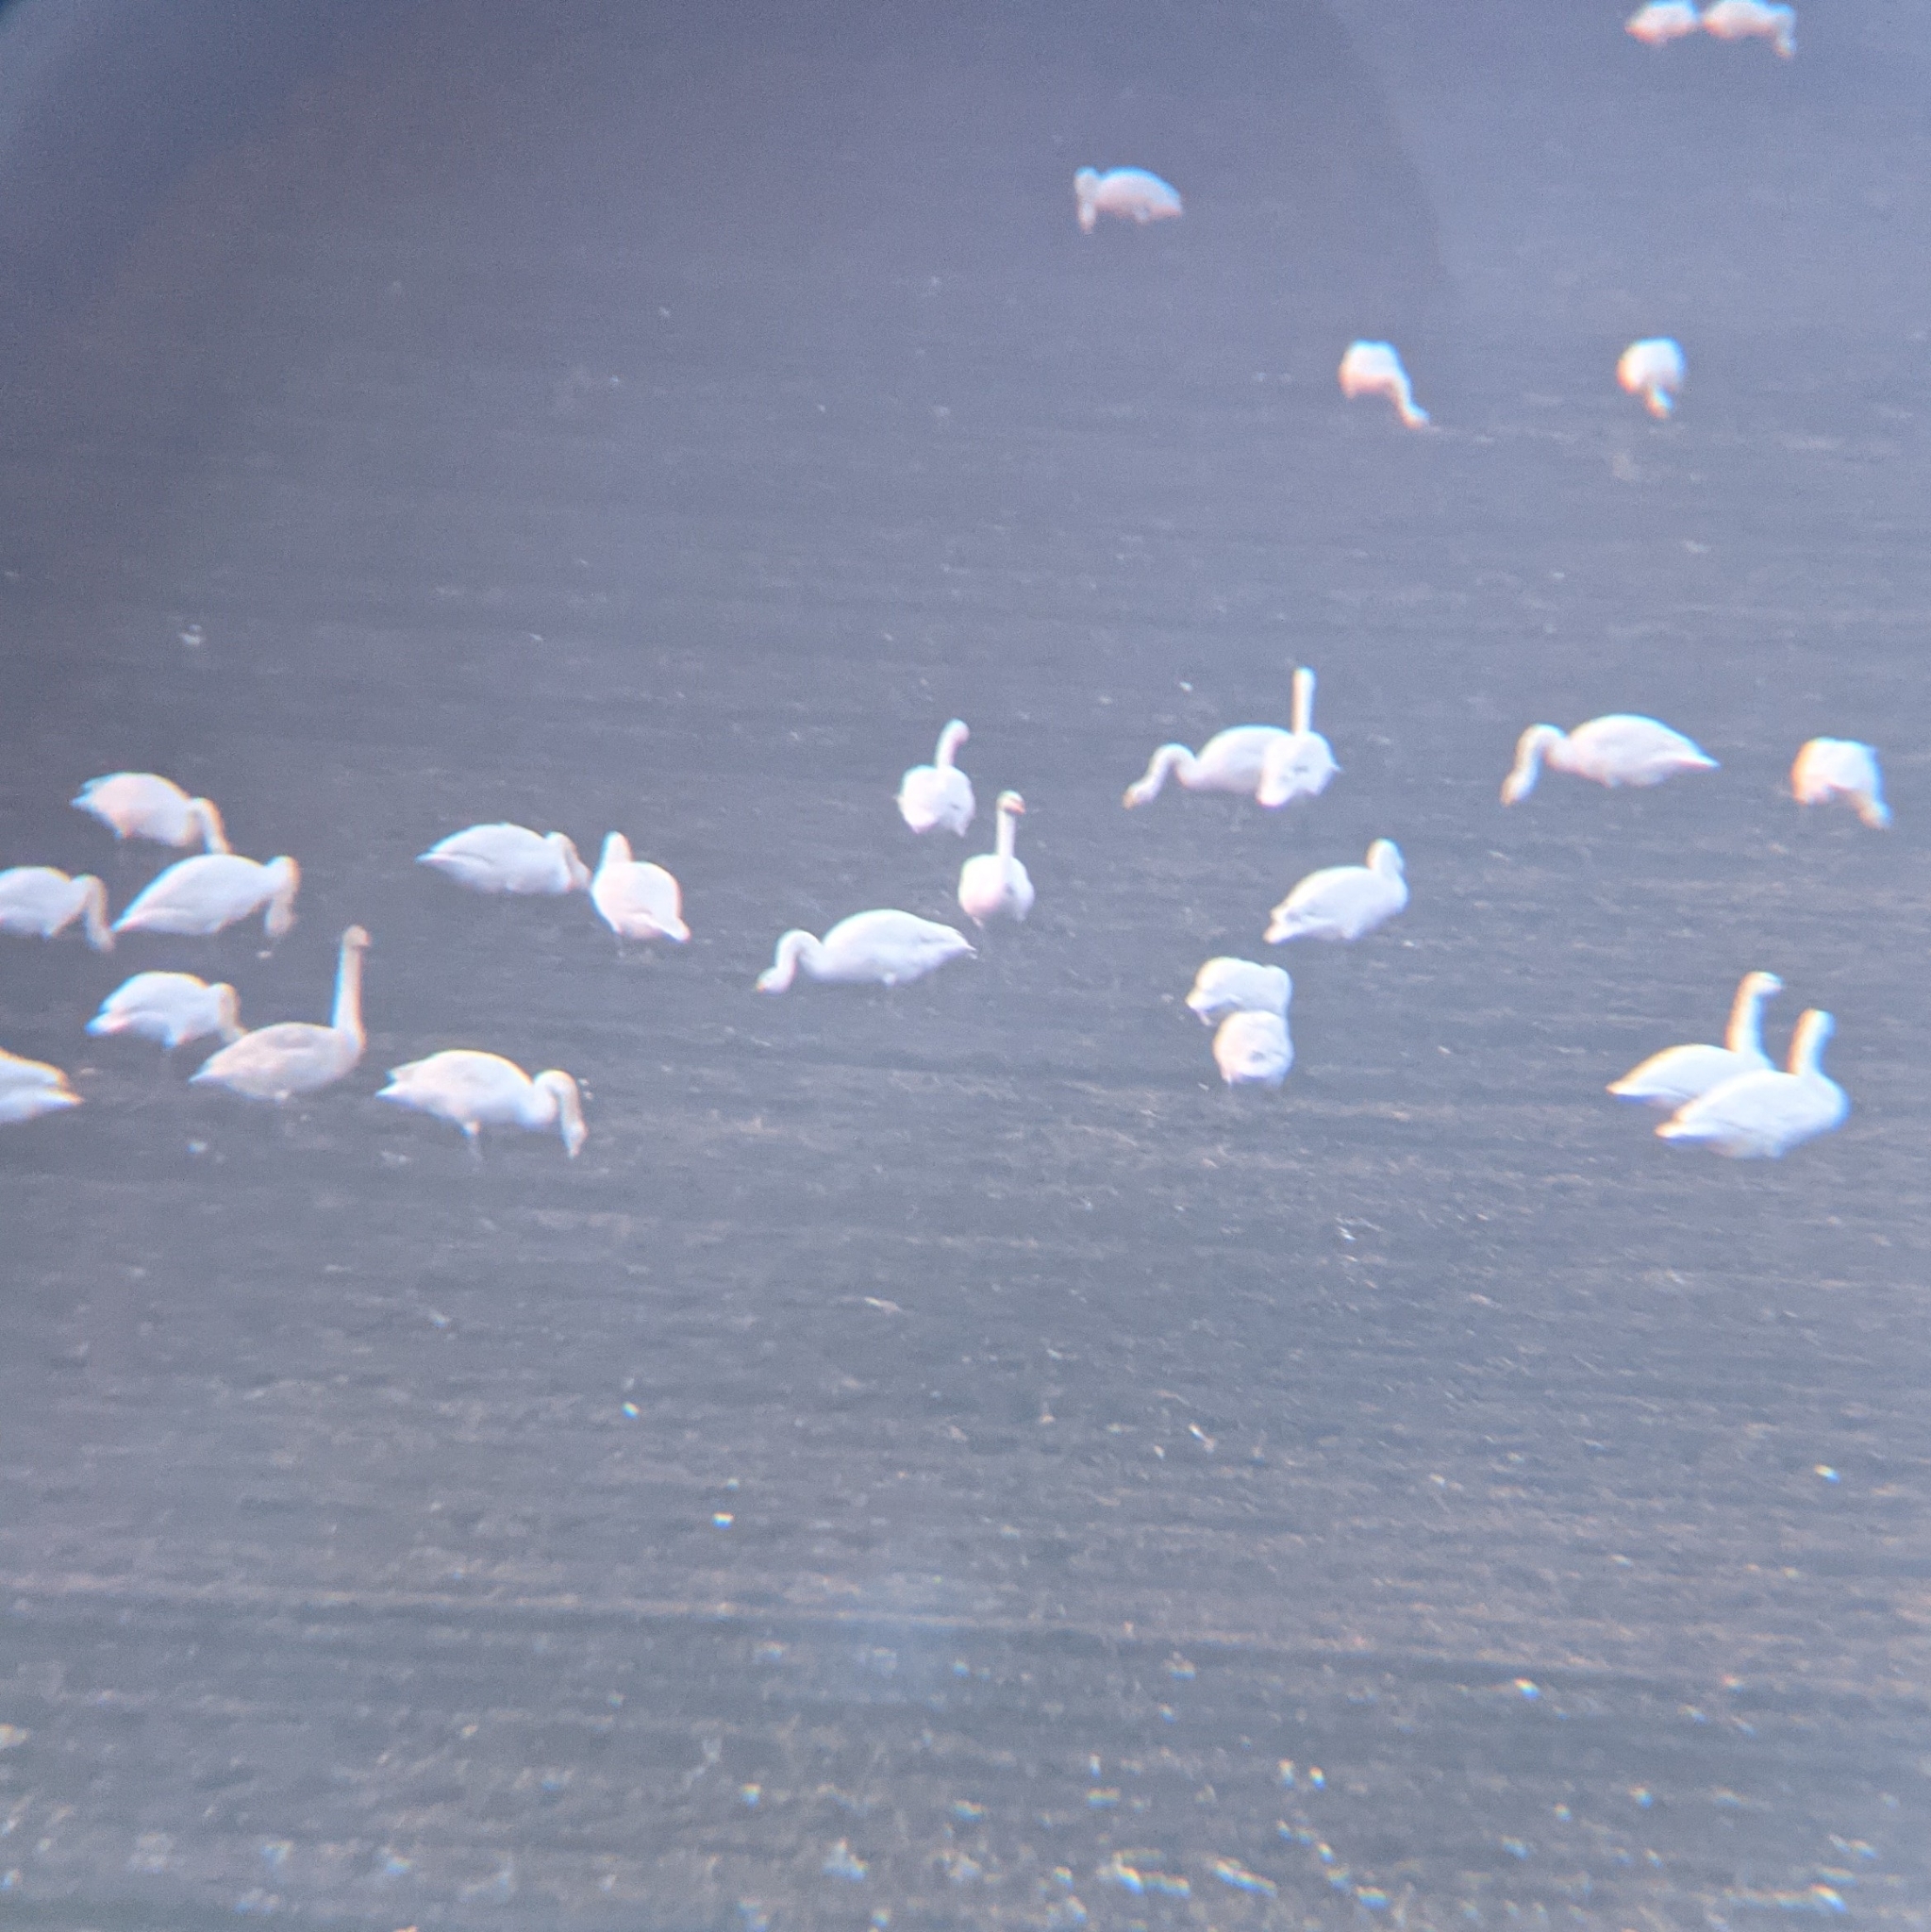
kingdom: Animalia
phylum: Chordata
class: Aves
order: Anseriformes
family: Anatidae
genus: Cygnus
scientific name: Cygnus cygnus
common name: Whooper swan
